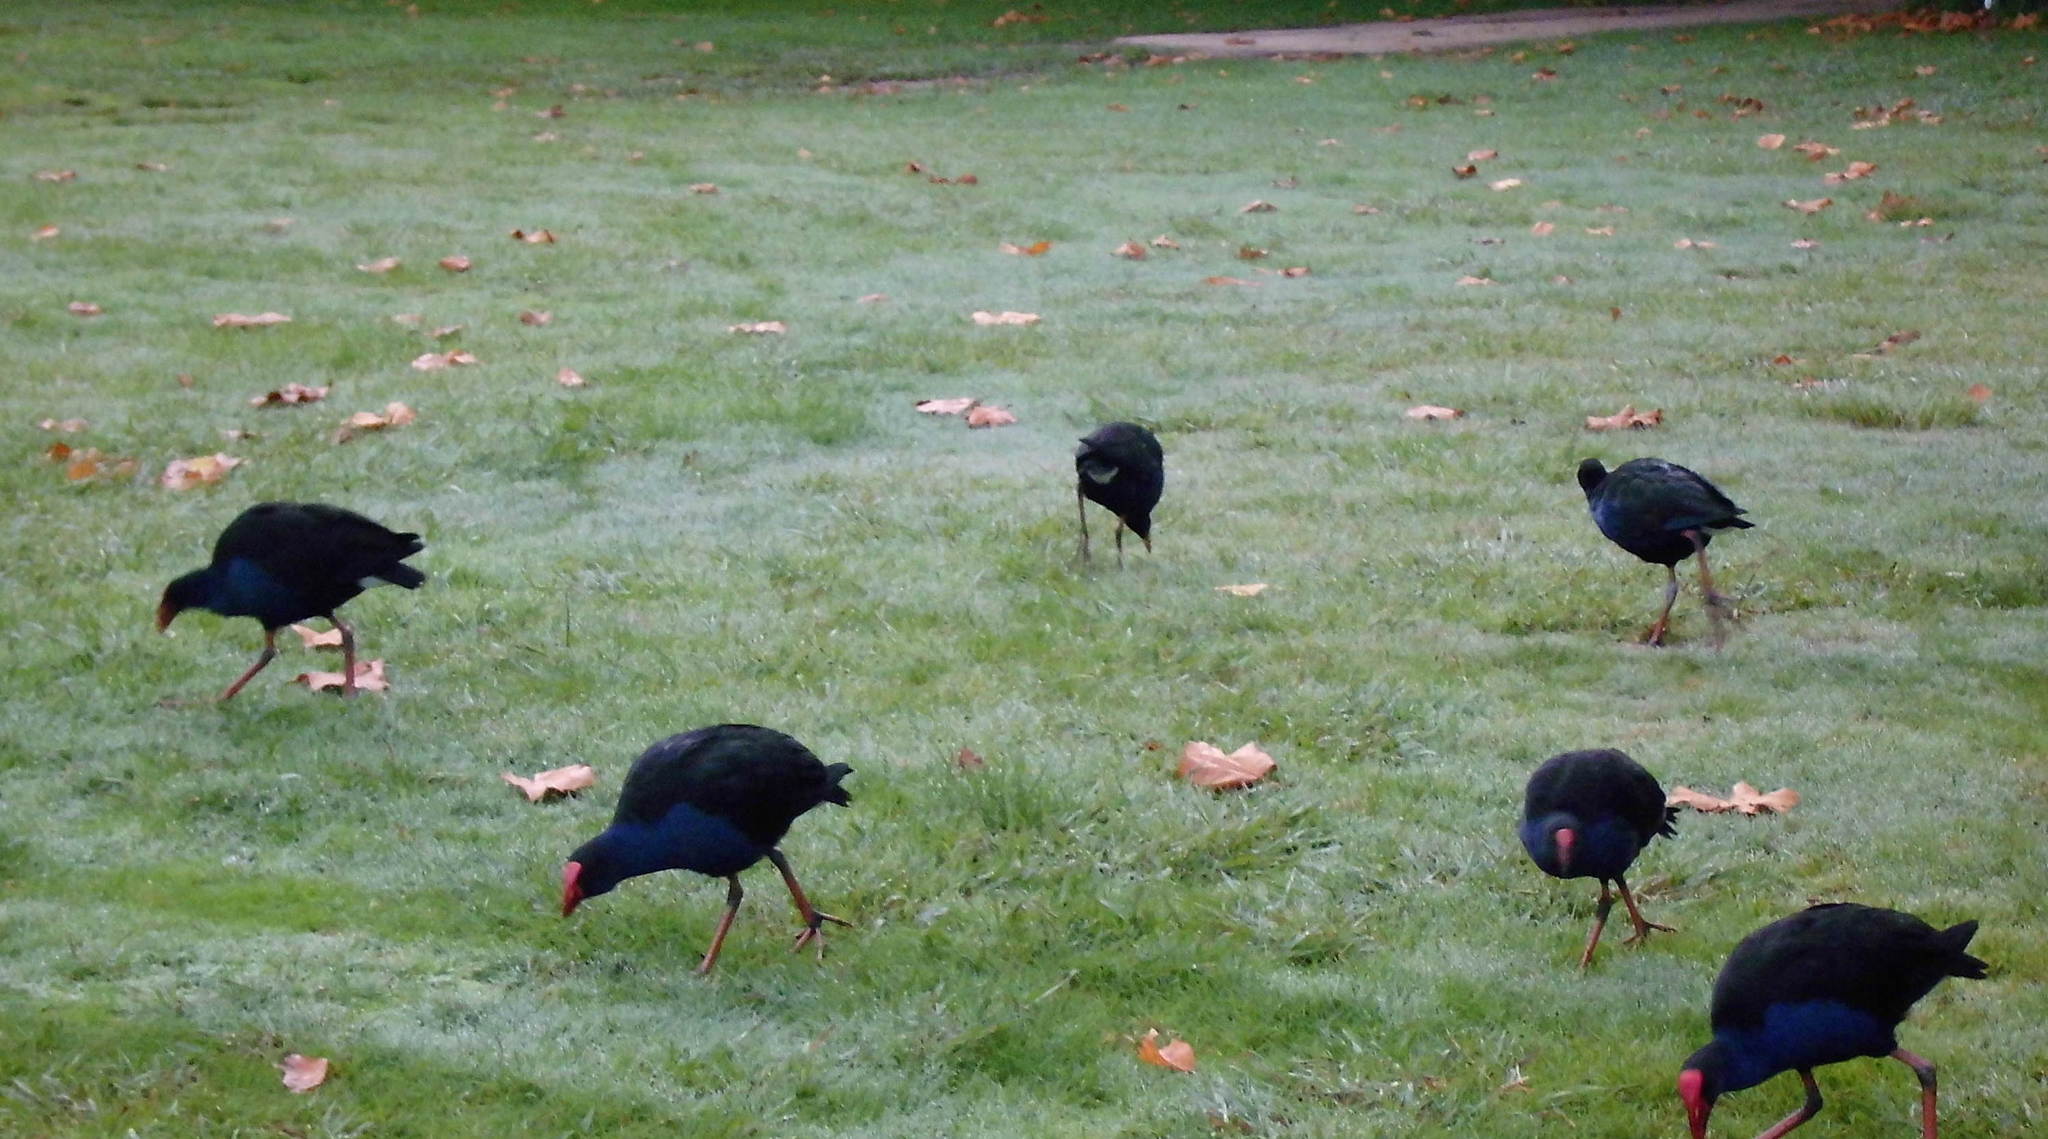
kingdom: Animalia
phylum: Chordata
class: Aves
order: Gruiformes
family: Rallidae
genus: Porphyrio
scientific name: Porphyrio melanotus
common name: Australasian swamphen
